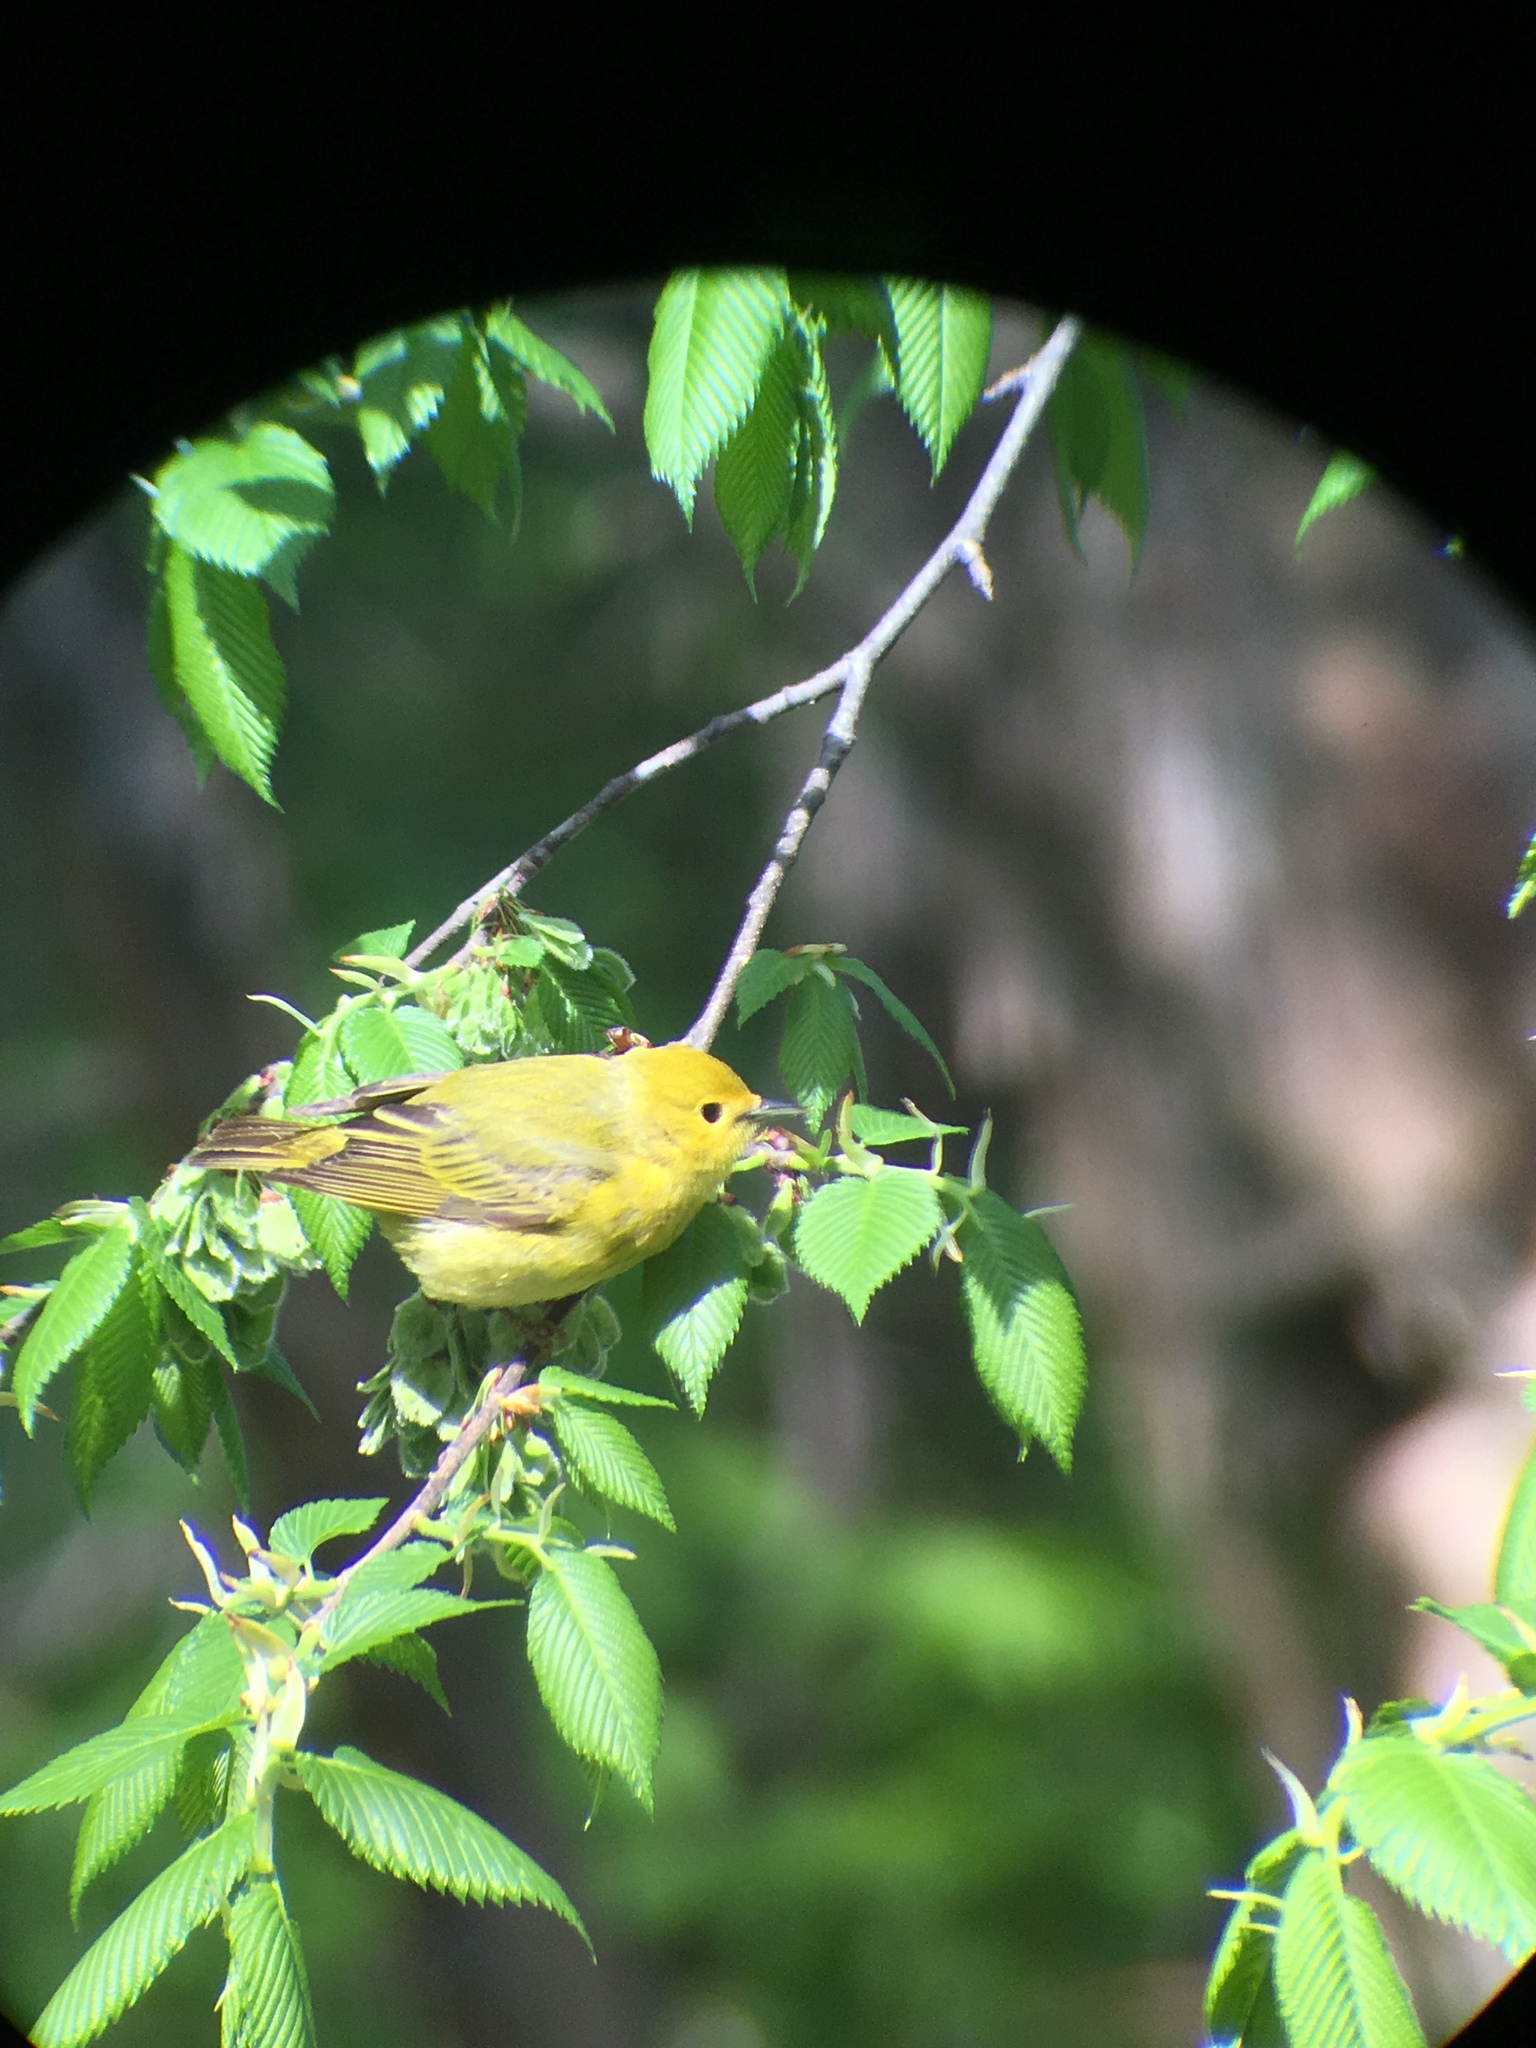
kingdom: Animalia
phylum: Chordata
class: Aves
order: Passeriformes
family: Parulidae
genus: Setophaga
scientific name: Setophaga petechia
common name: Yellow warbler
